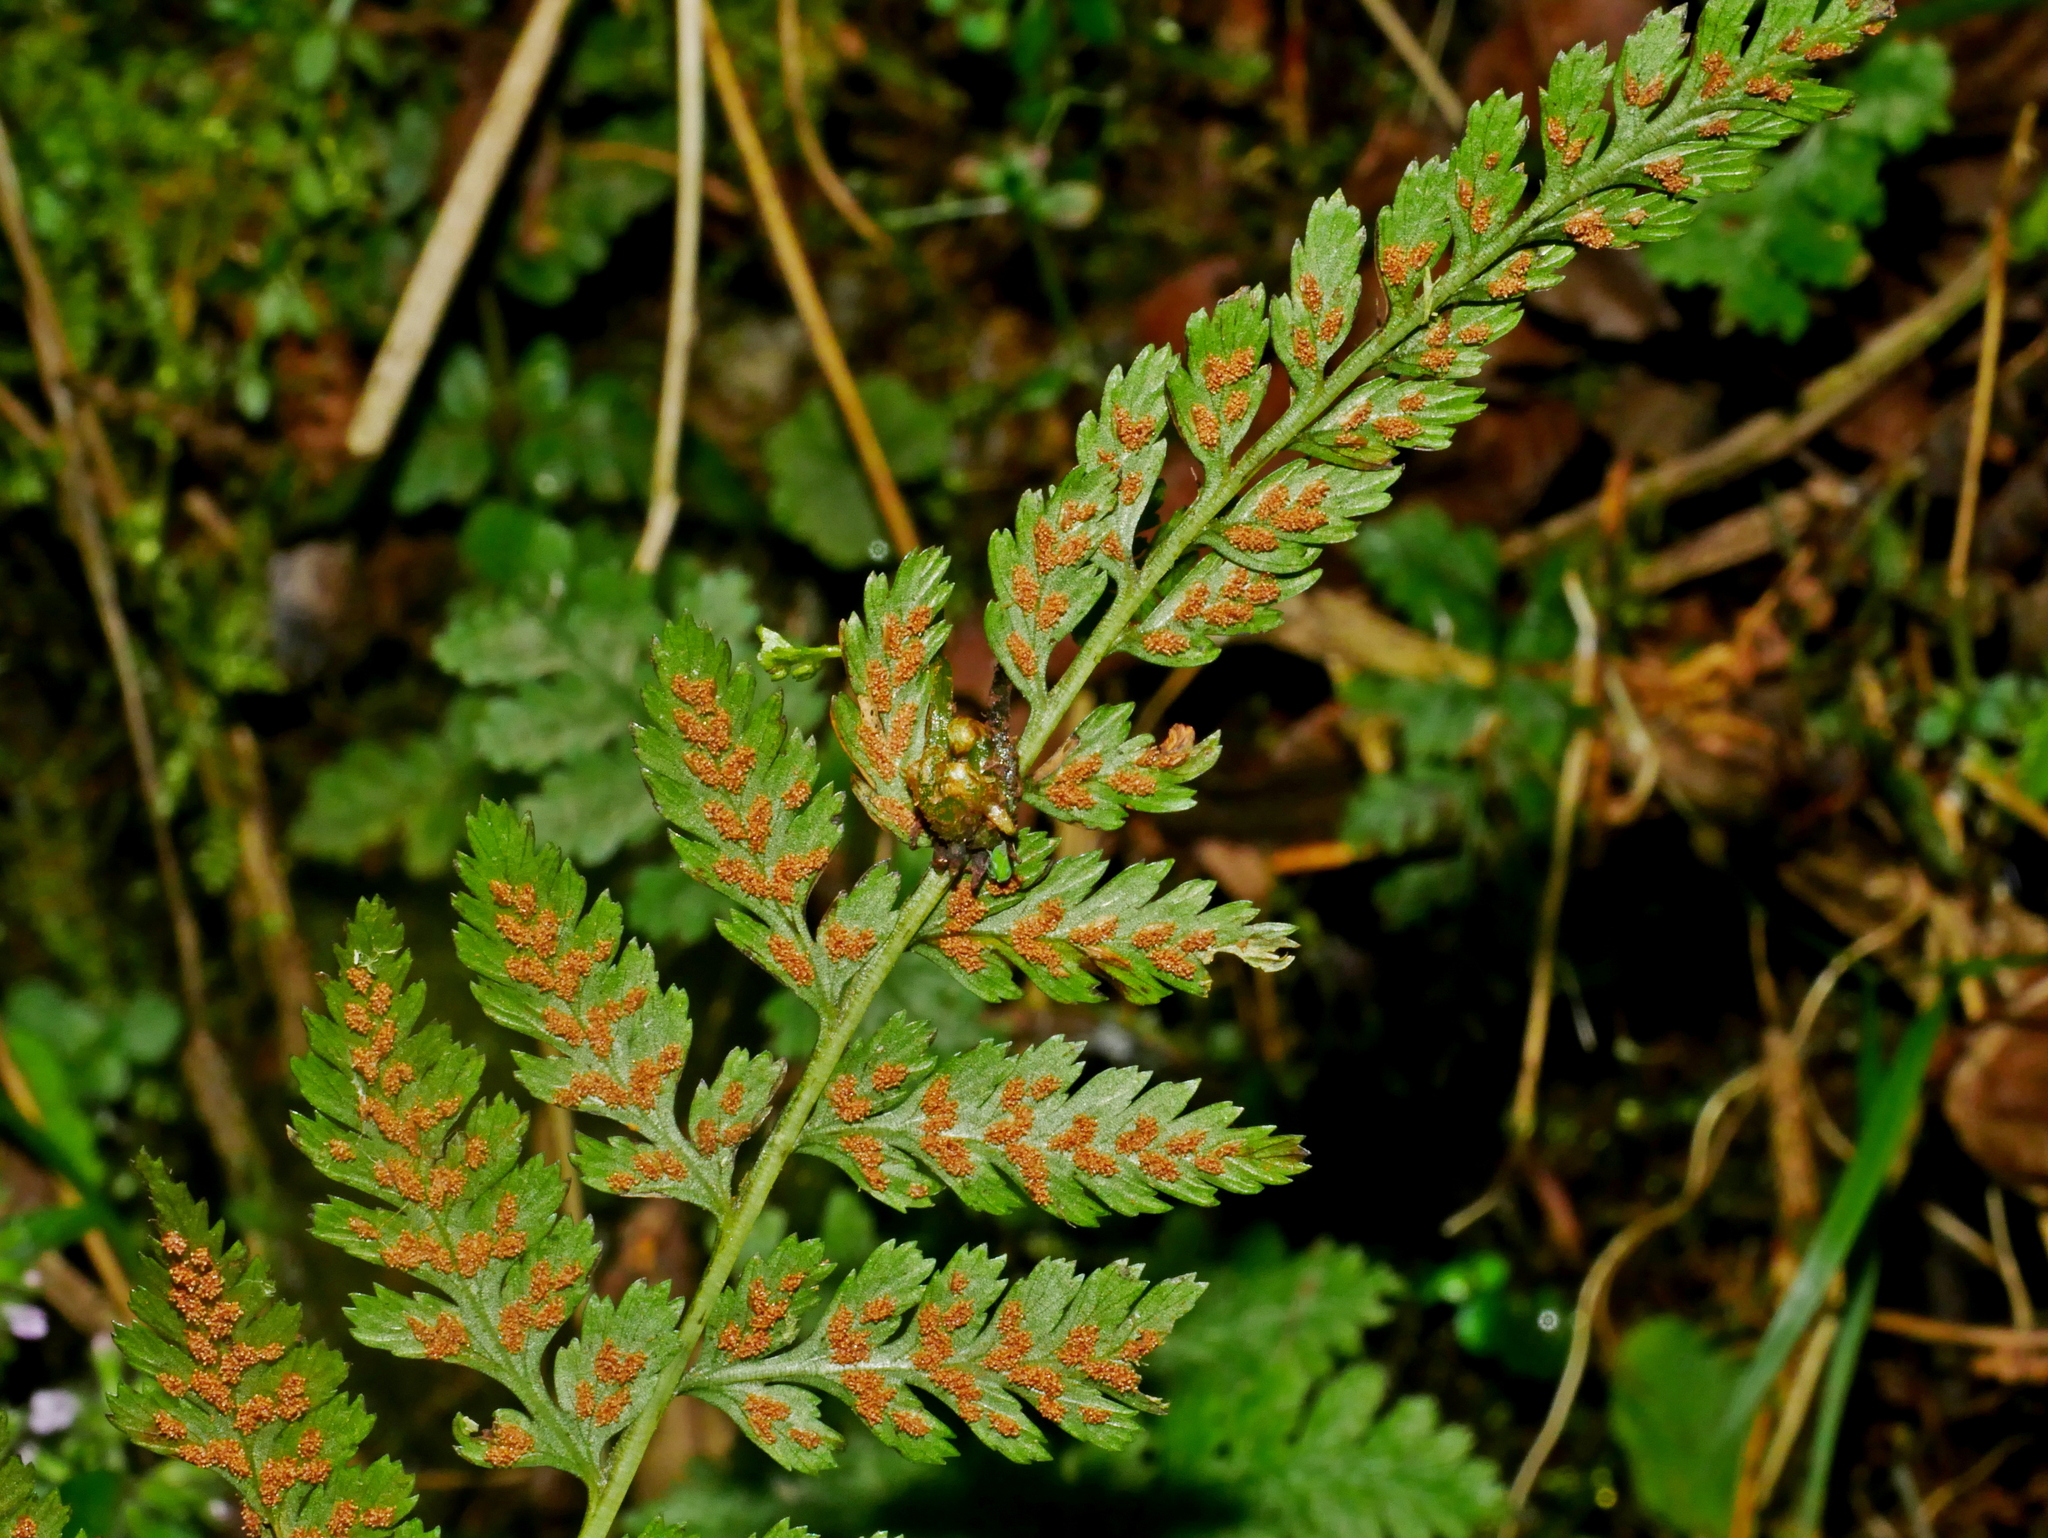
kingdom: Plantae
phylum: Tracheophyta
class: Polypodiopsida
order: Polypodiales
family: Athyriaceae
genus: Athyrium
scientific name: Athyrium strigillosum
